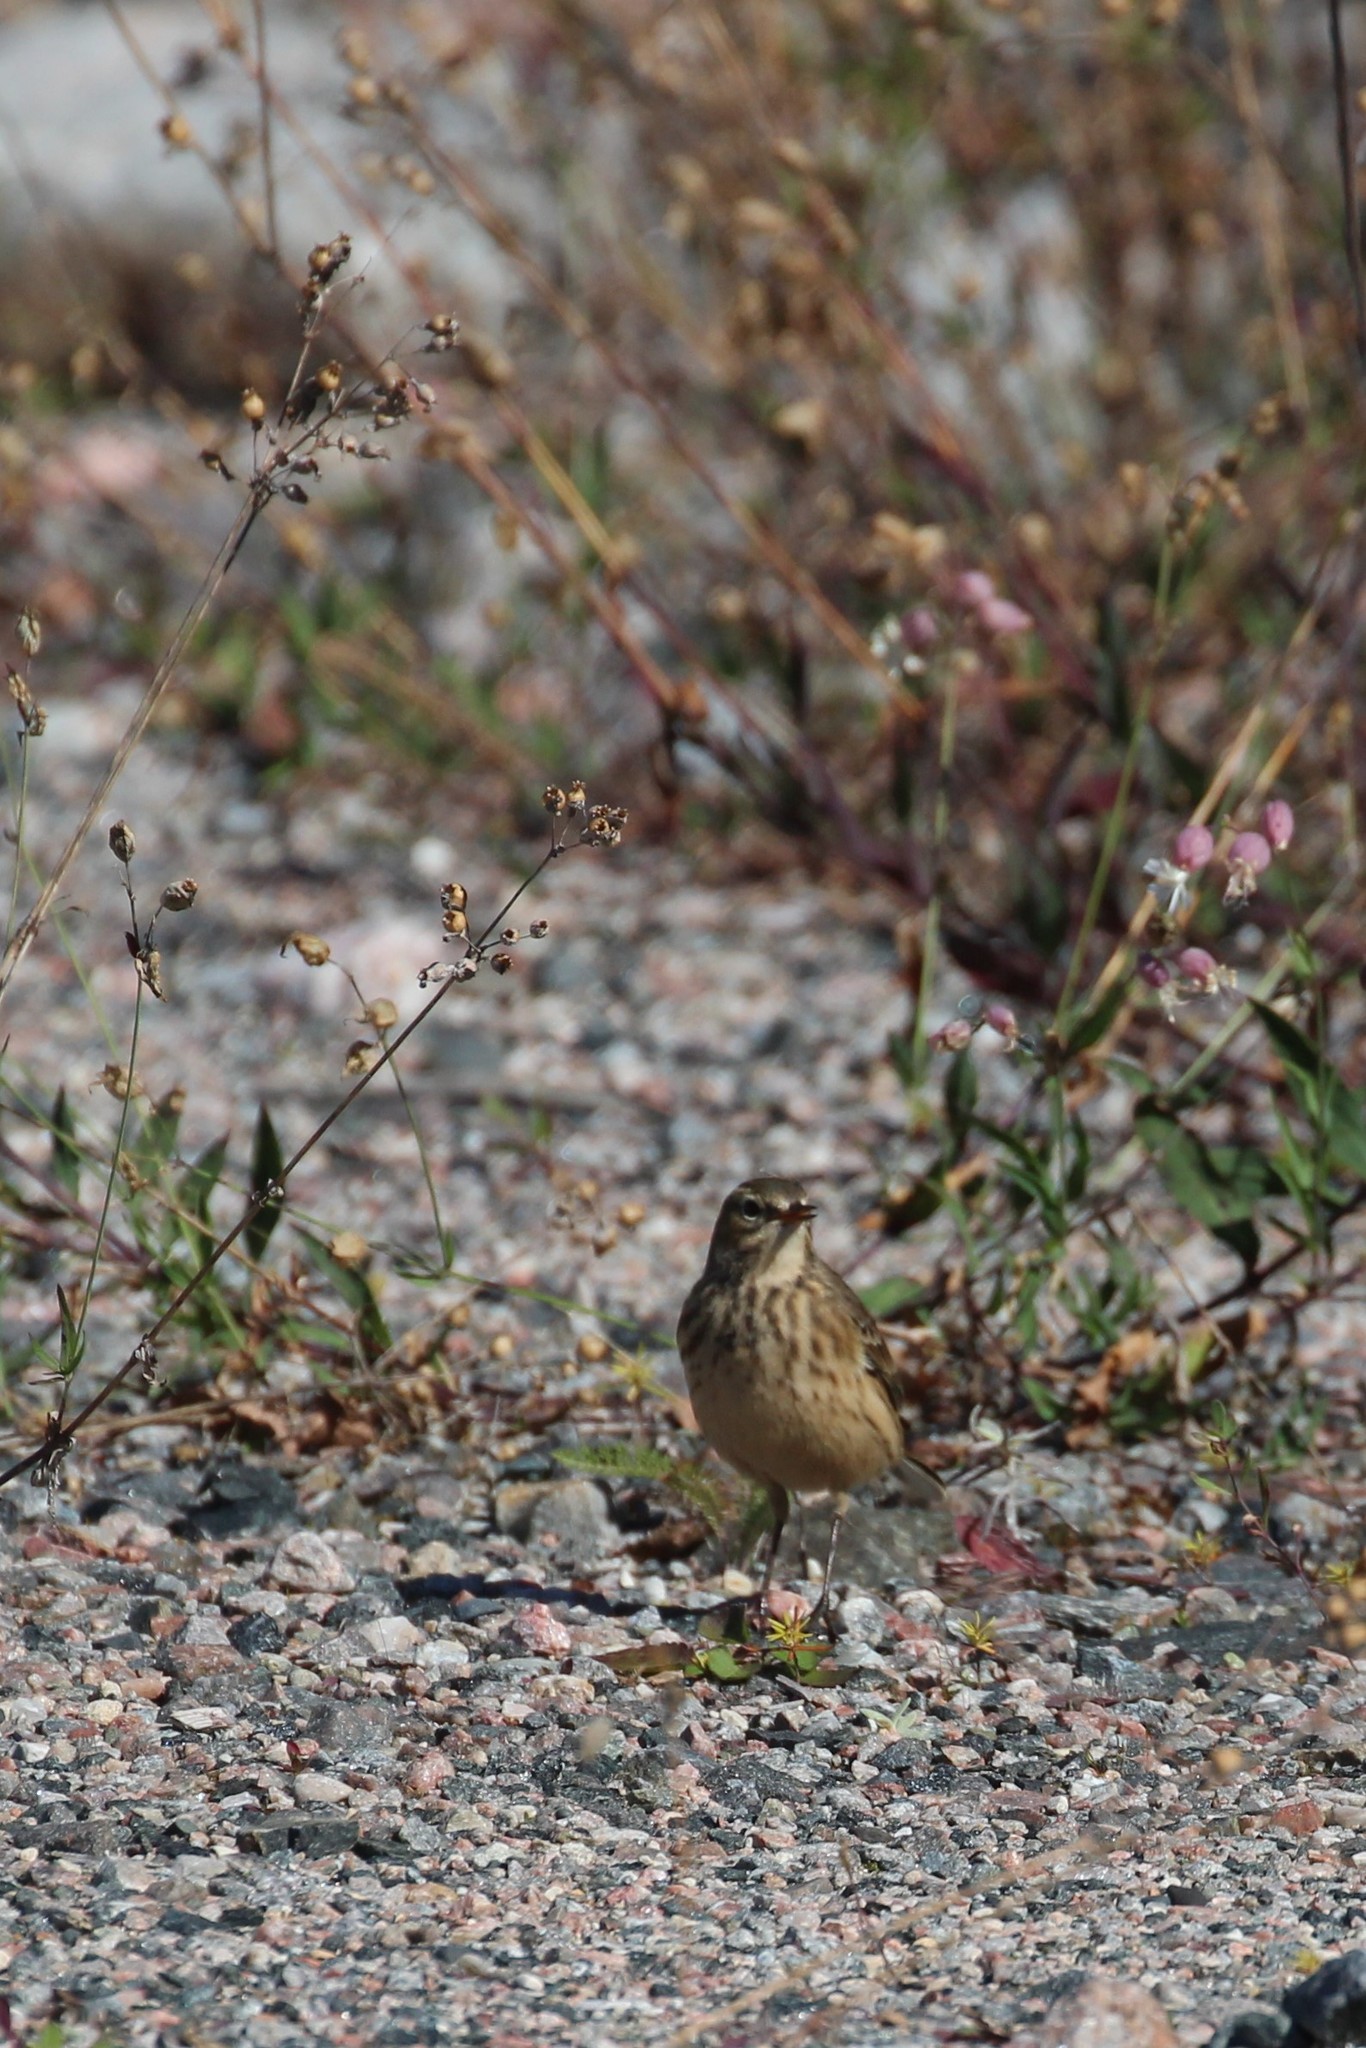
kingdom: Animalia
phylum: Chordata
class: Aves
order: Passeriformes
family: Motacillidae
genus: Anthus
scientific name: Anthus rubescens
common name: Buff-bellied pipit
